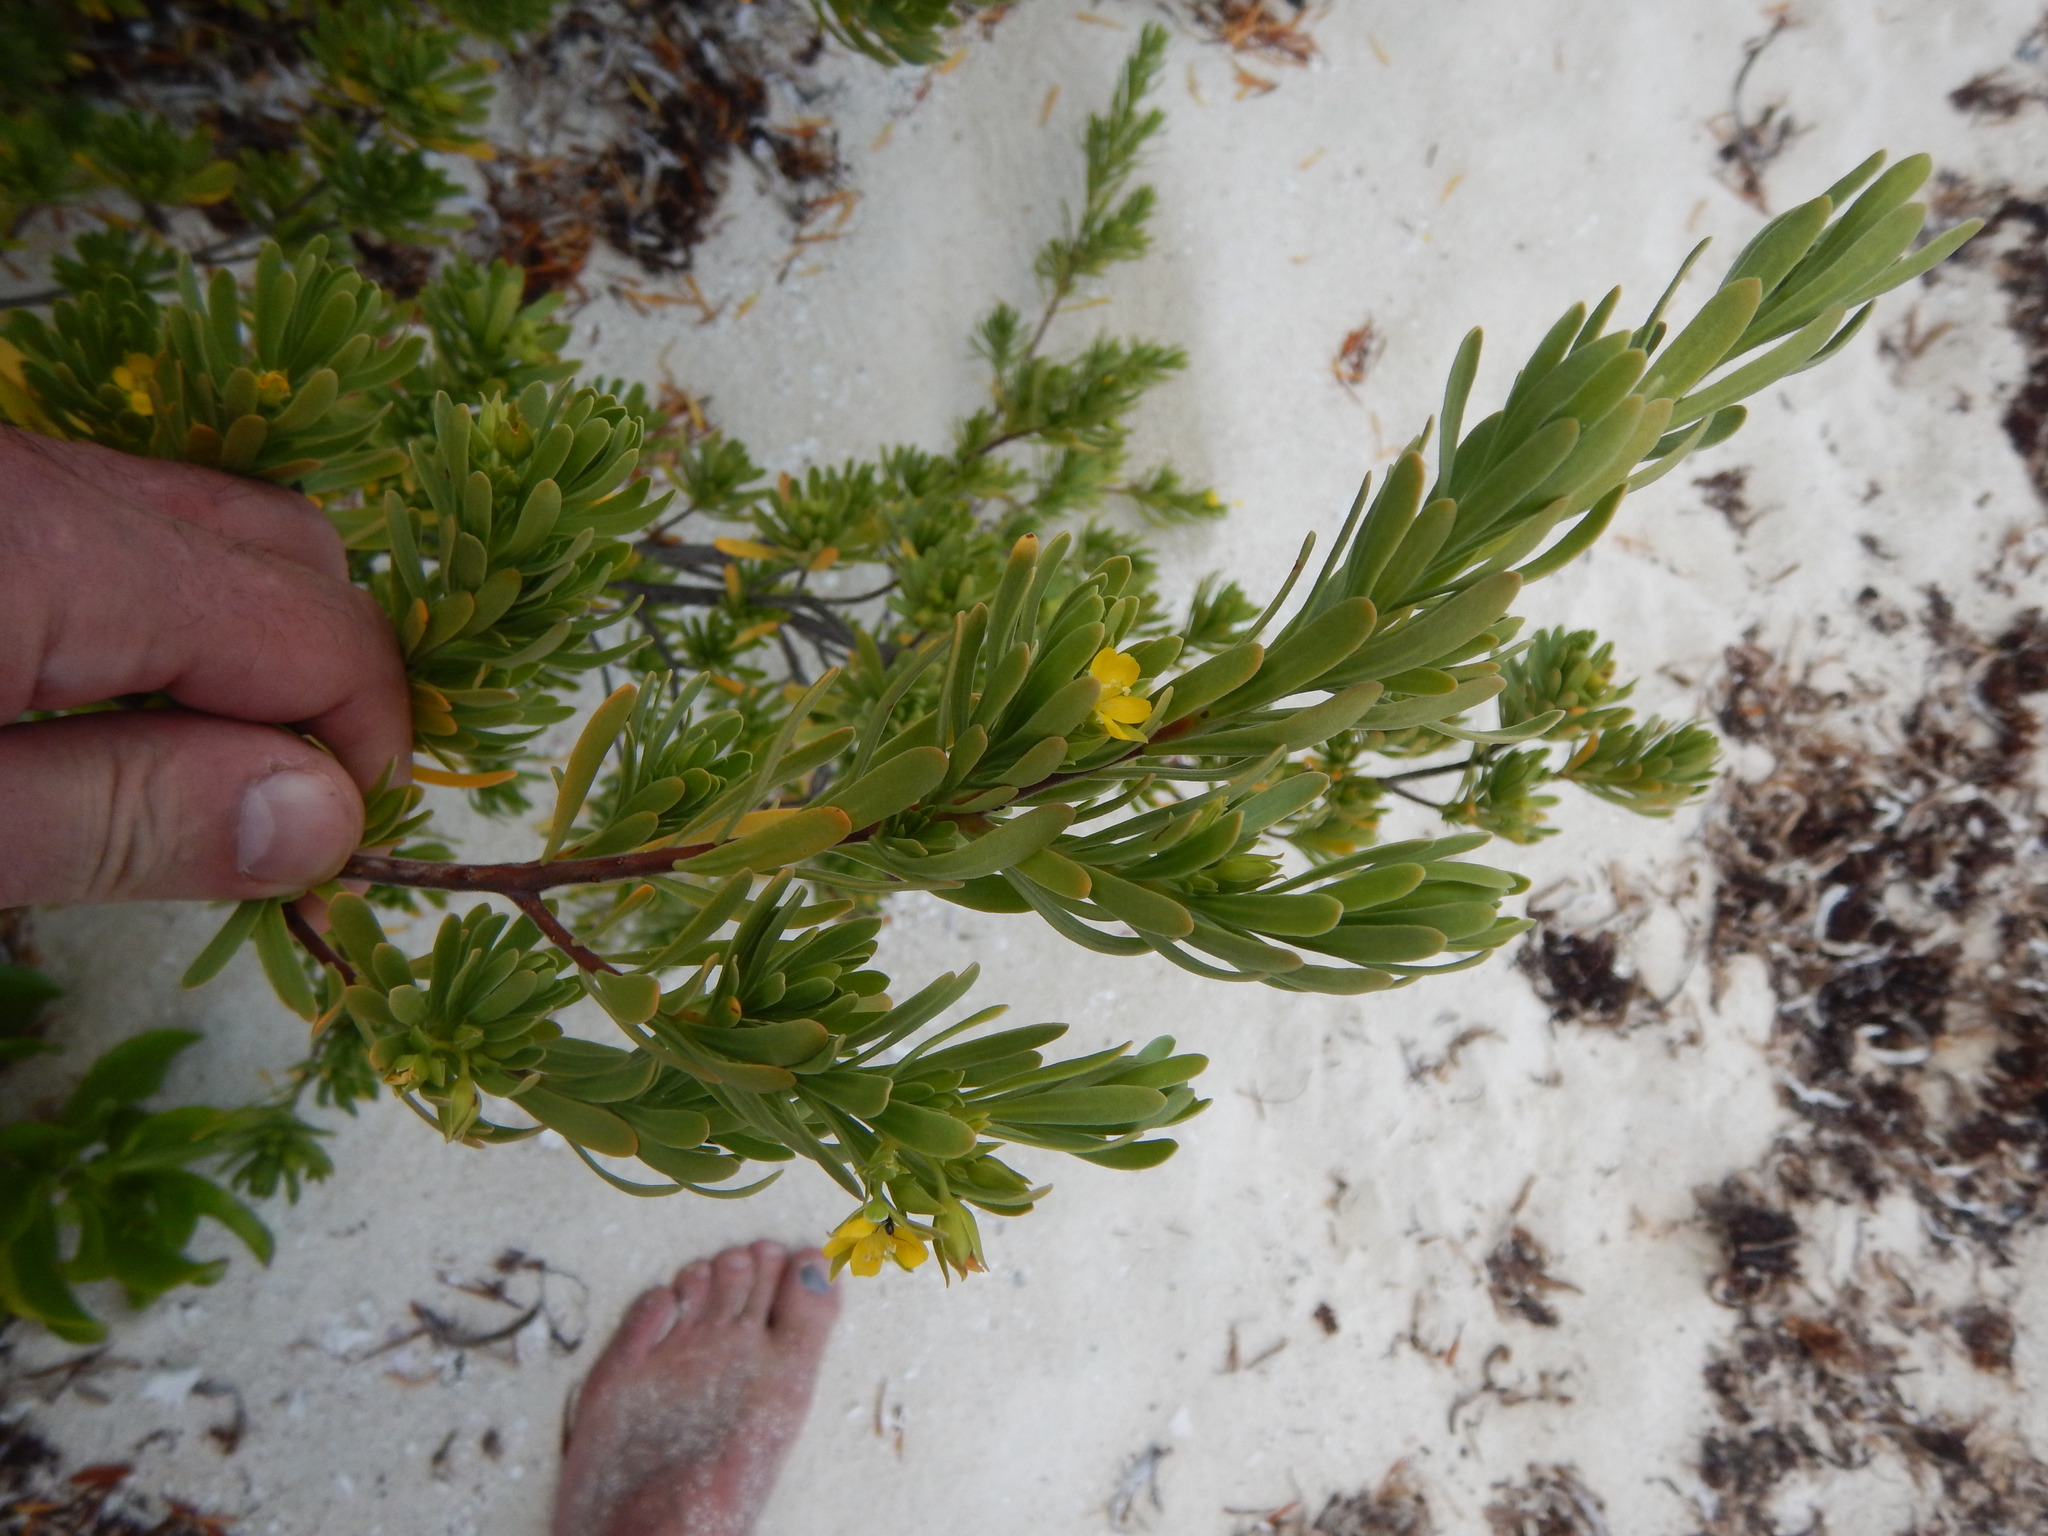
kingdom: Plantae
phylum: Tracheophyta
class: Magnoliopsida
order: Fabales
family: Surianaceae
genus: Suriana
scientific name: Suriana maritima
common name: Bay-cedar
